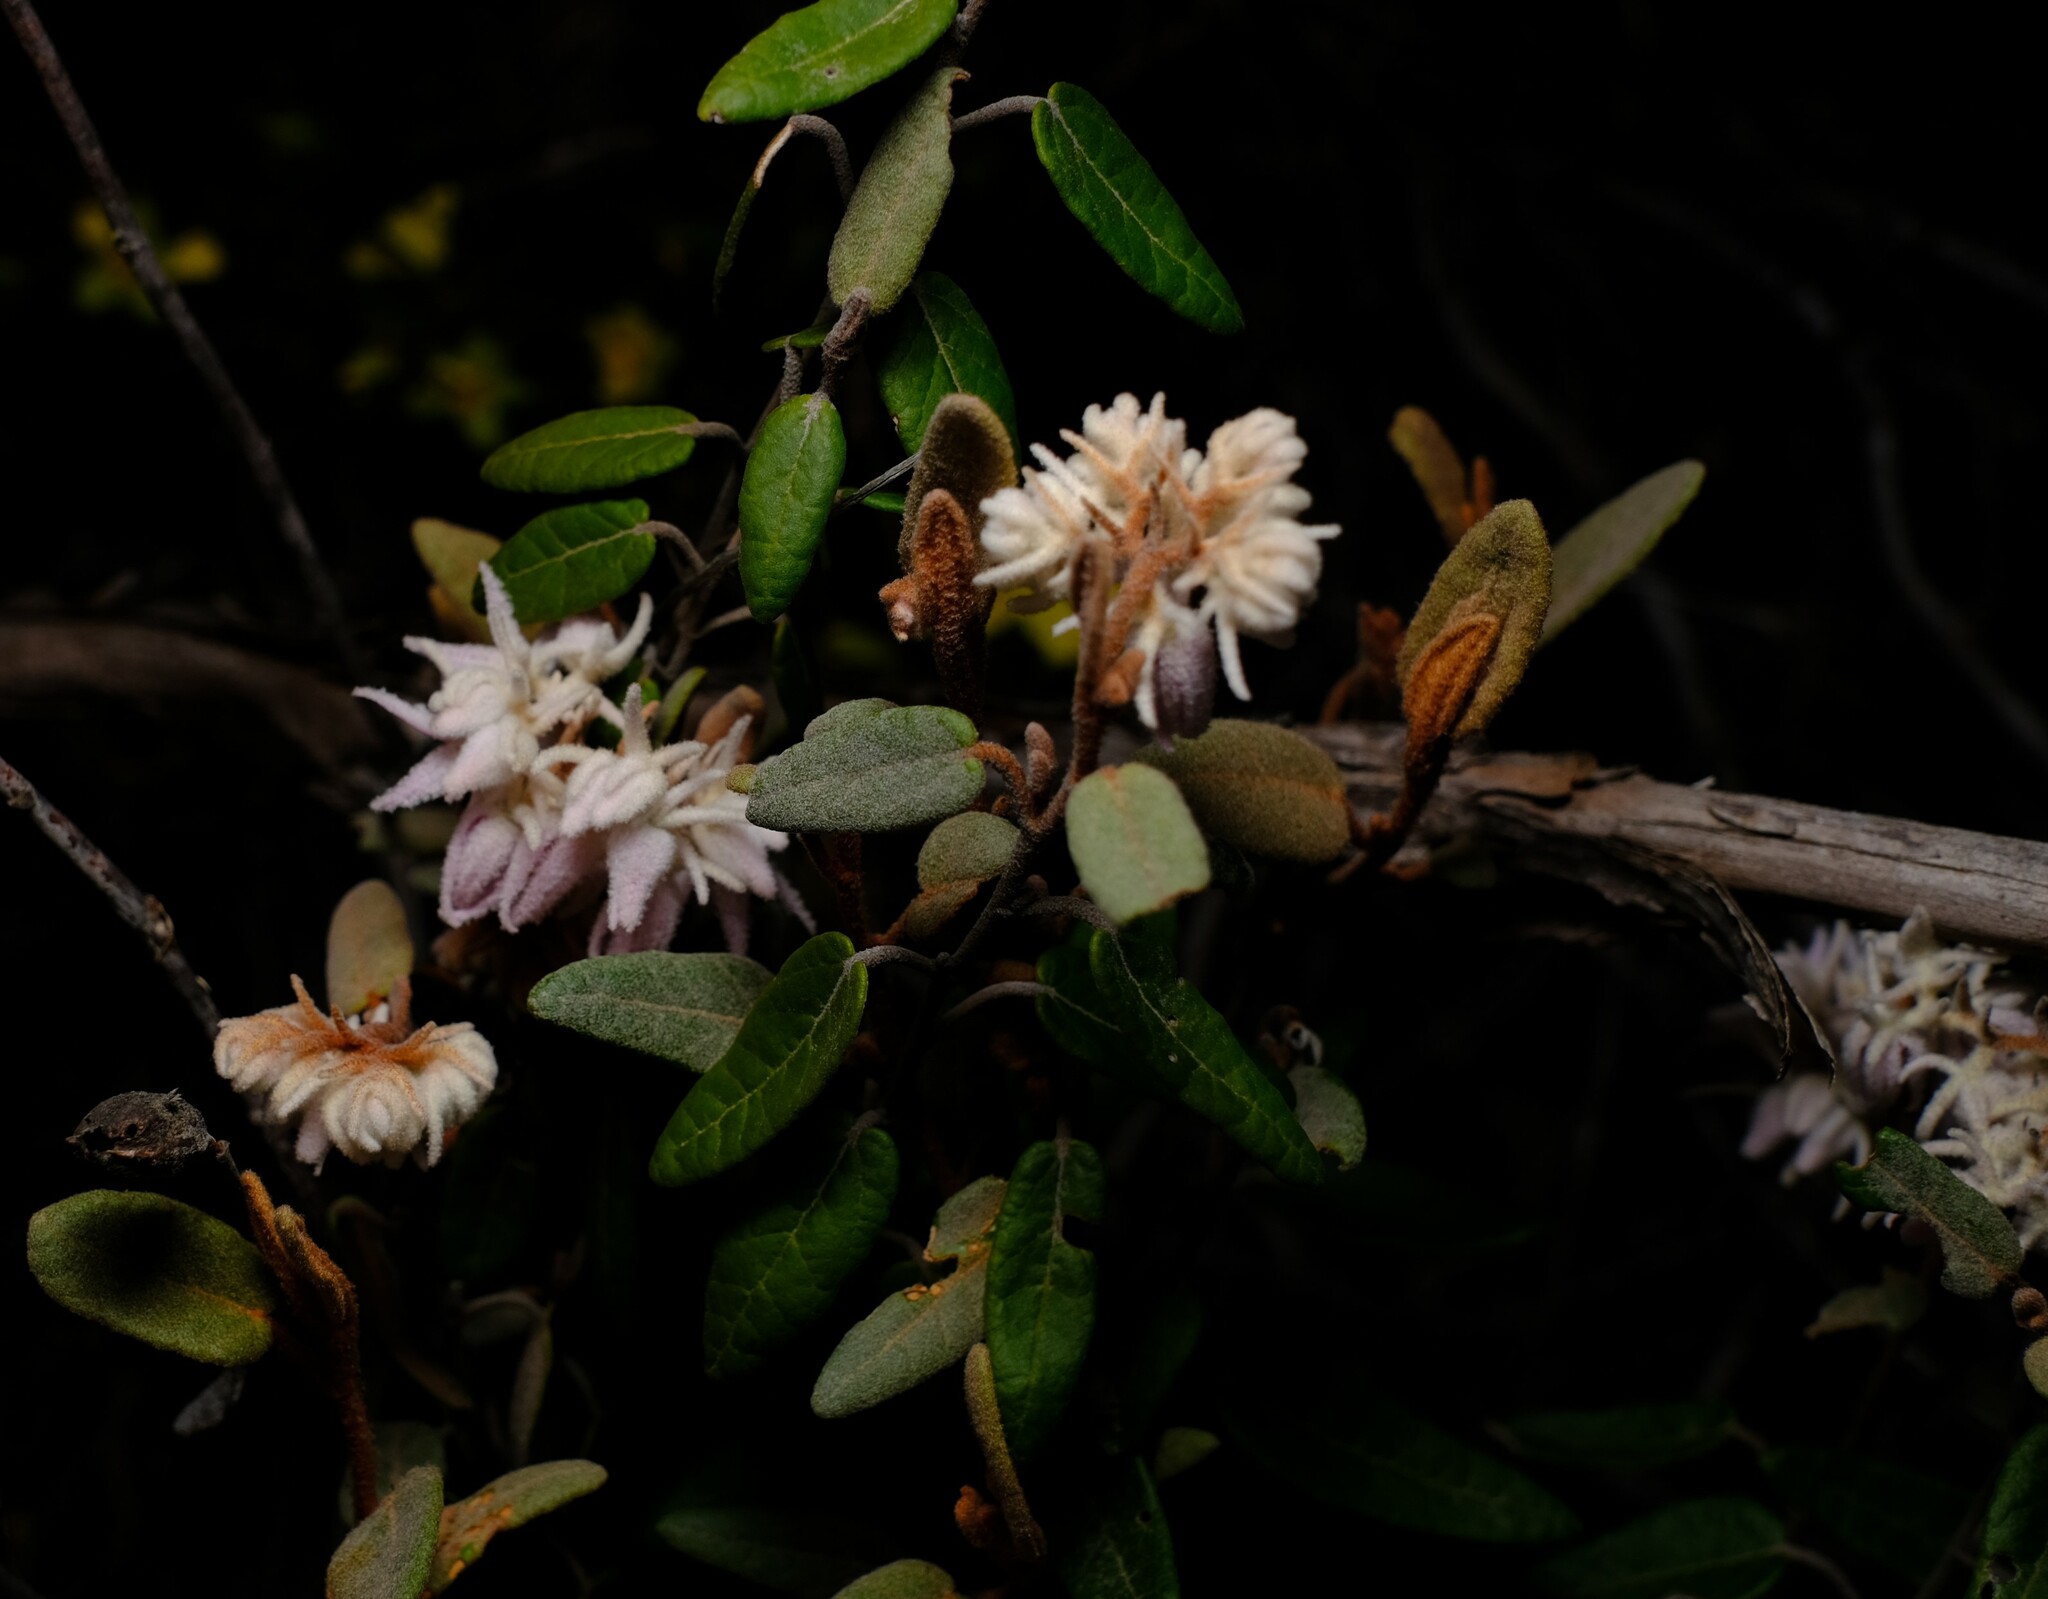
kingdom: Plantae
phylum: Tracheophyta
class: Magnoliopsida
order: Malvales
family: Malvaceae
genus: Lasiopetalum
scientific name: Lasiopetalum drummondii
